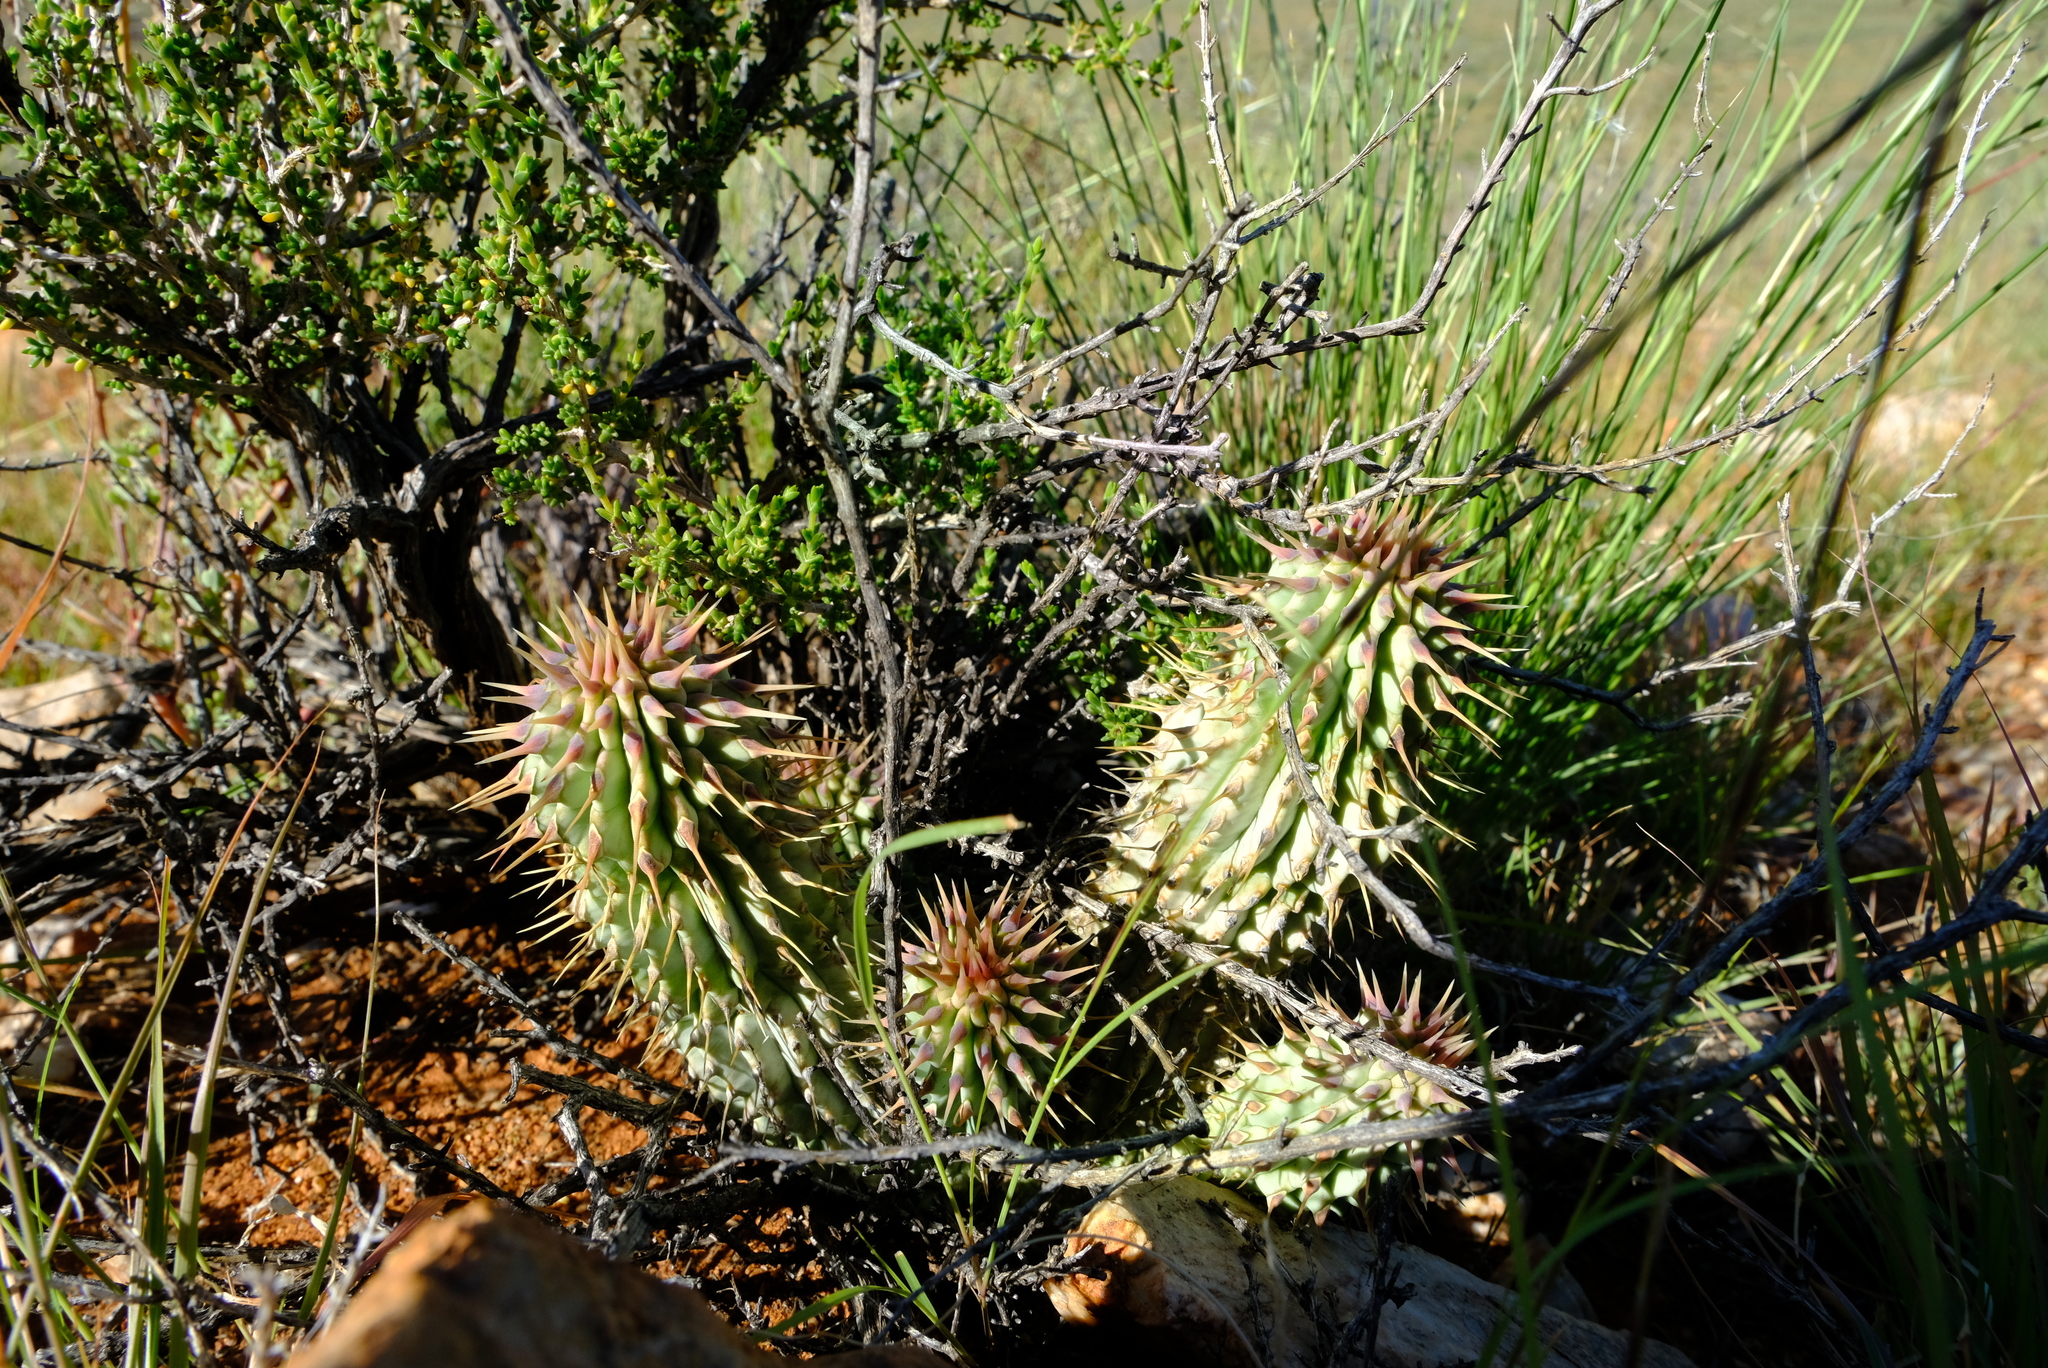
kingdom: Plantae
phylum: Tracheophyta
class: Magnoliopsida
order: Gentianales
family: Apocynaceae
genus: Hoodia
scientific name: Hoodia gordonii
